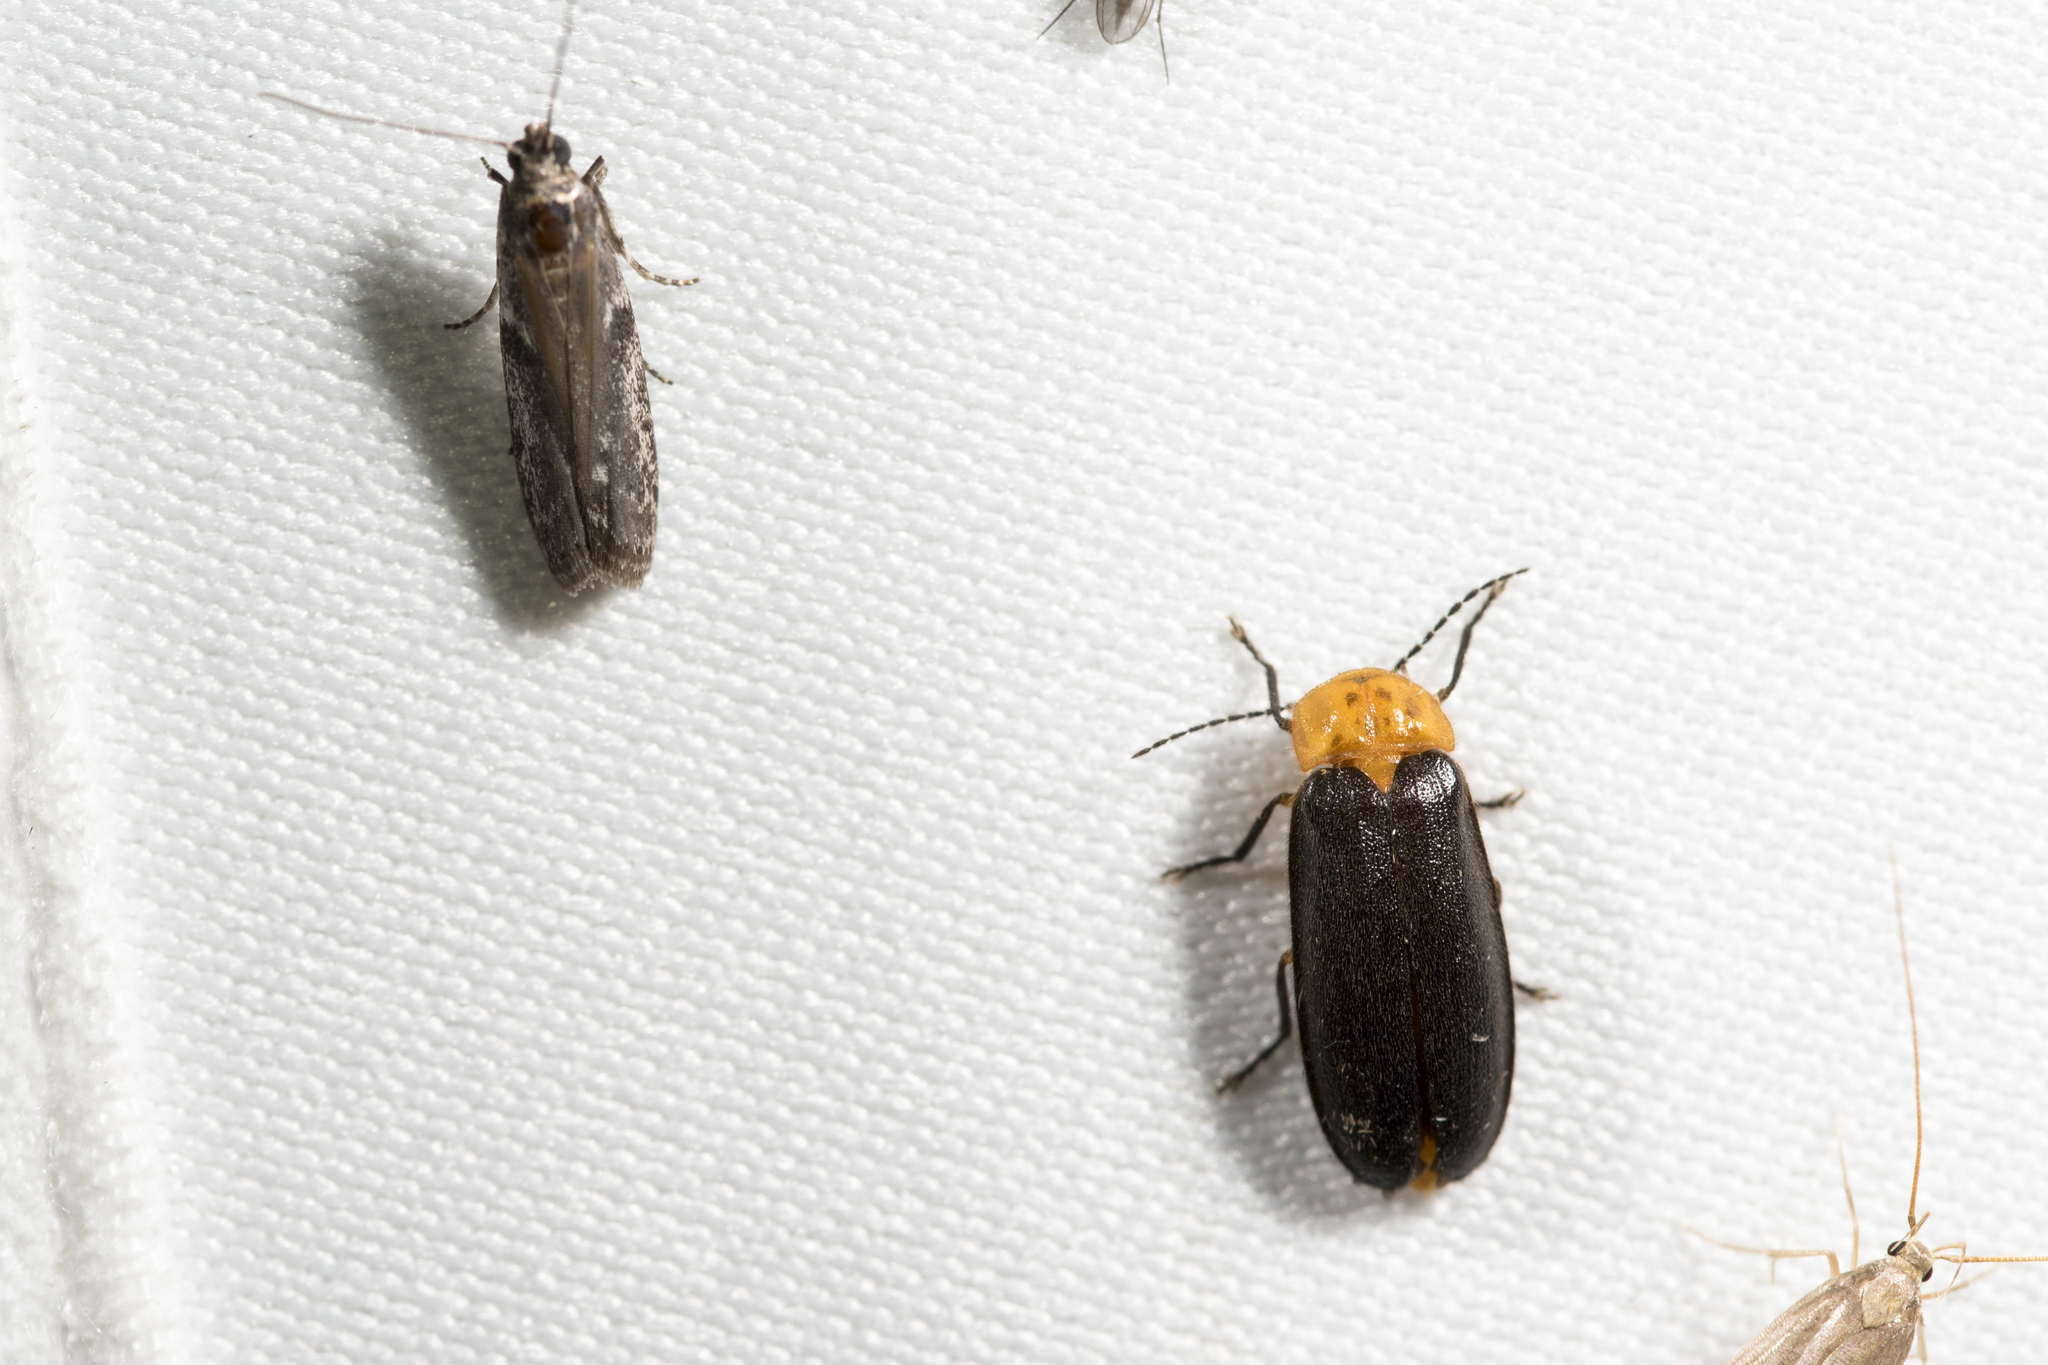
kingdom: Animalia
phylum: Arthropoda
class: Insecta
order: Coleoptera
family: Lampyridae
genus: Abscondita
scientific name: Abscondita cerata
